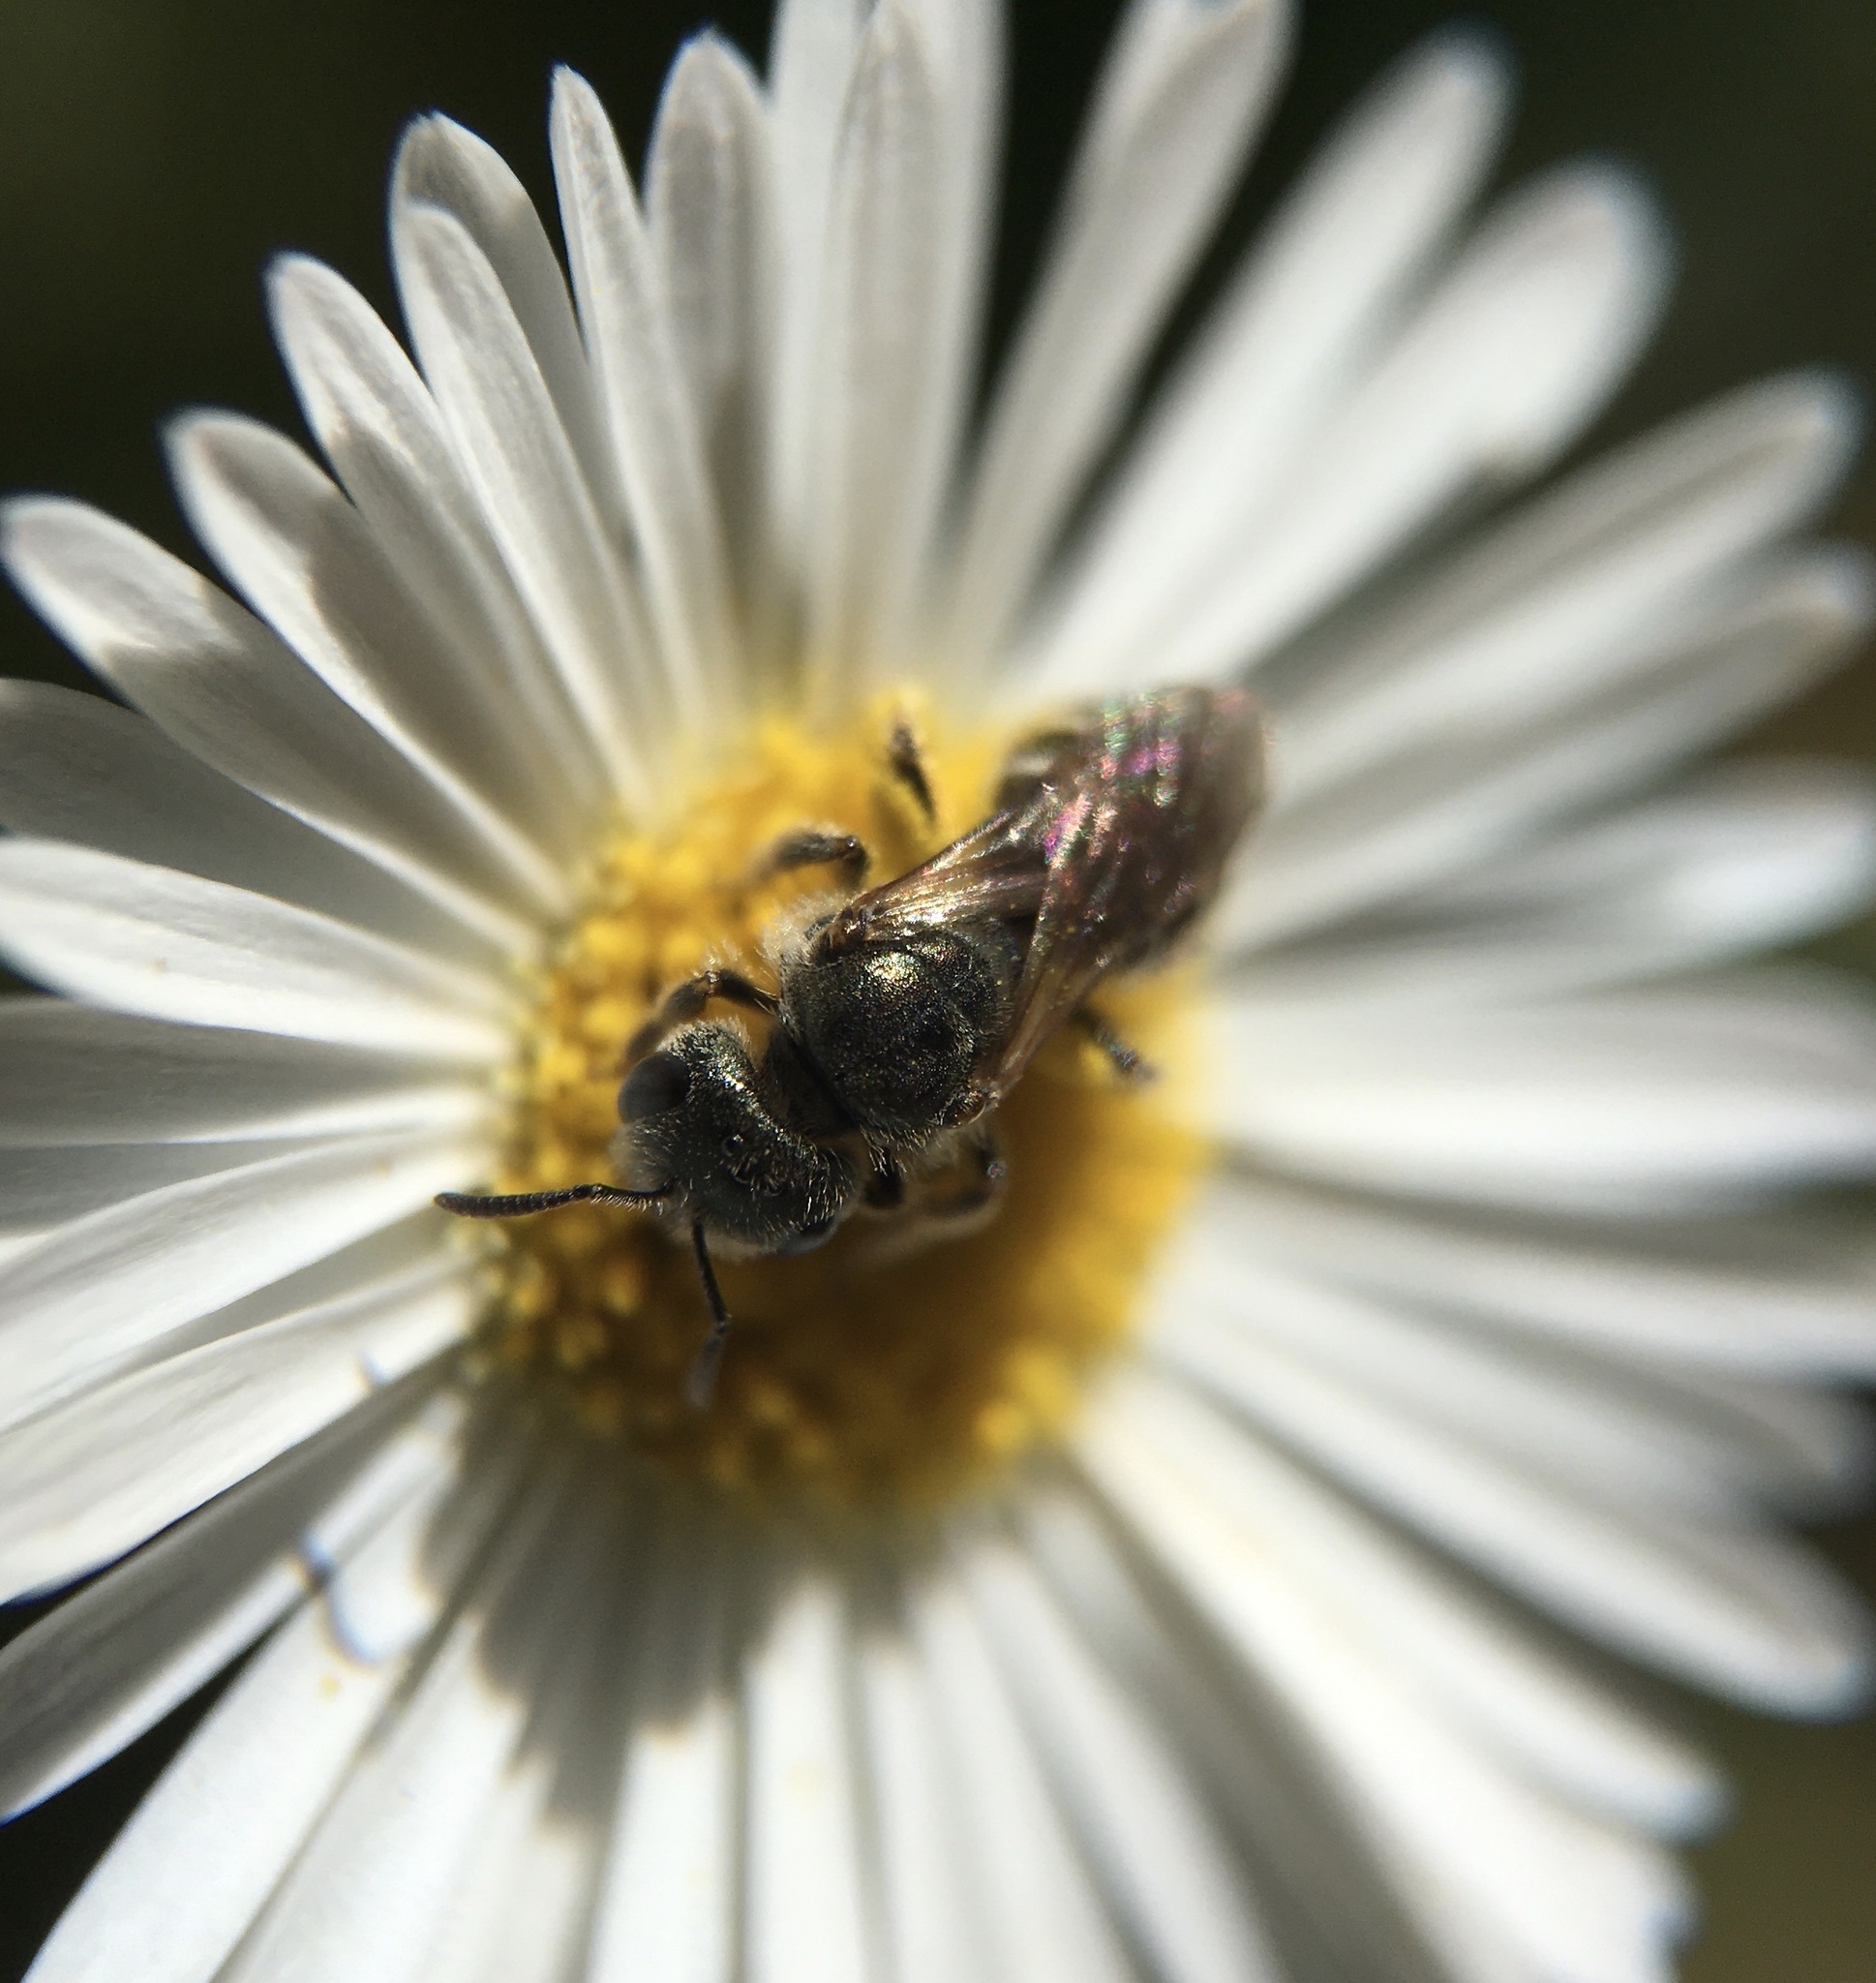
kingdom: Animalia
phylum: Arthropoda
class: Insecta
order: Hymenoptera
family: Halictidae
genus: Halictus
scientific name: Halictus tripartitus
